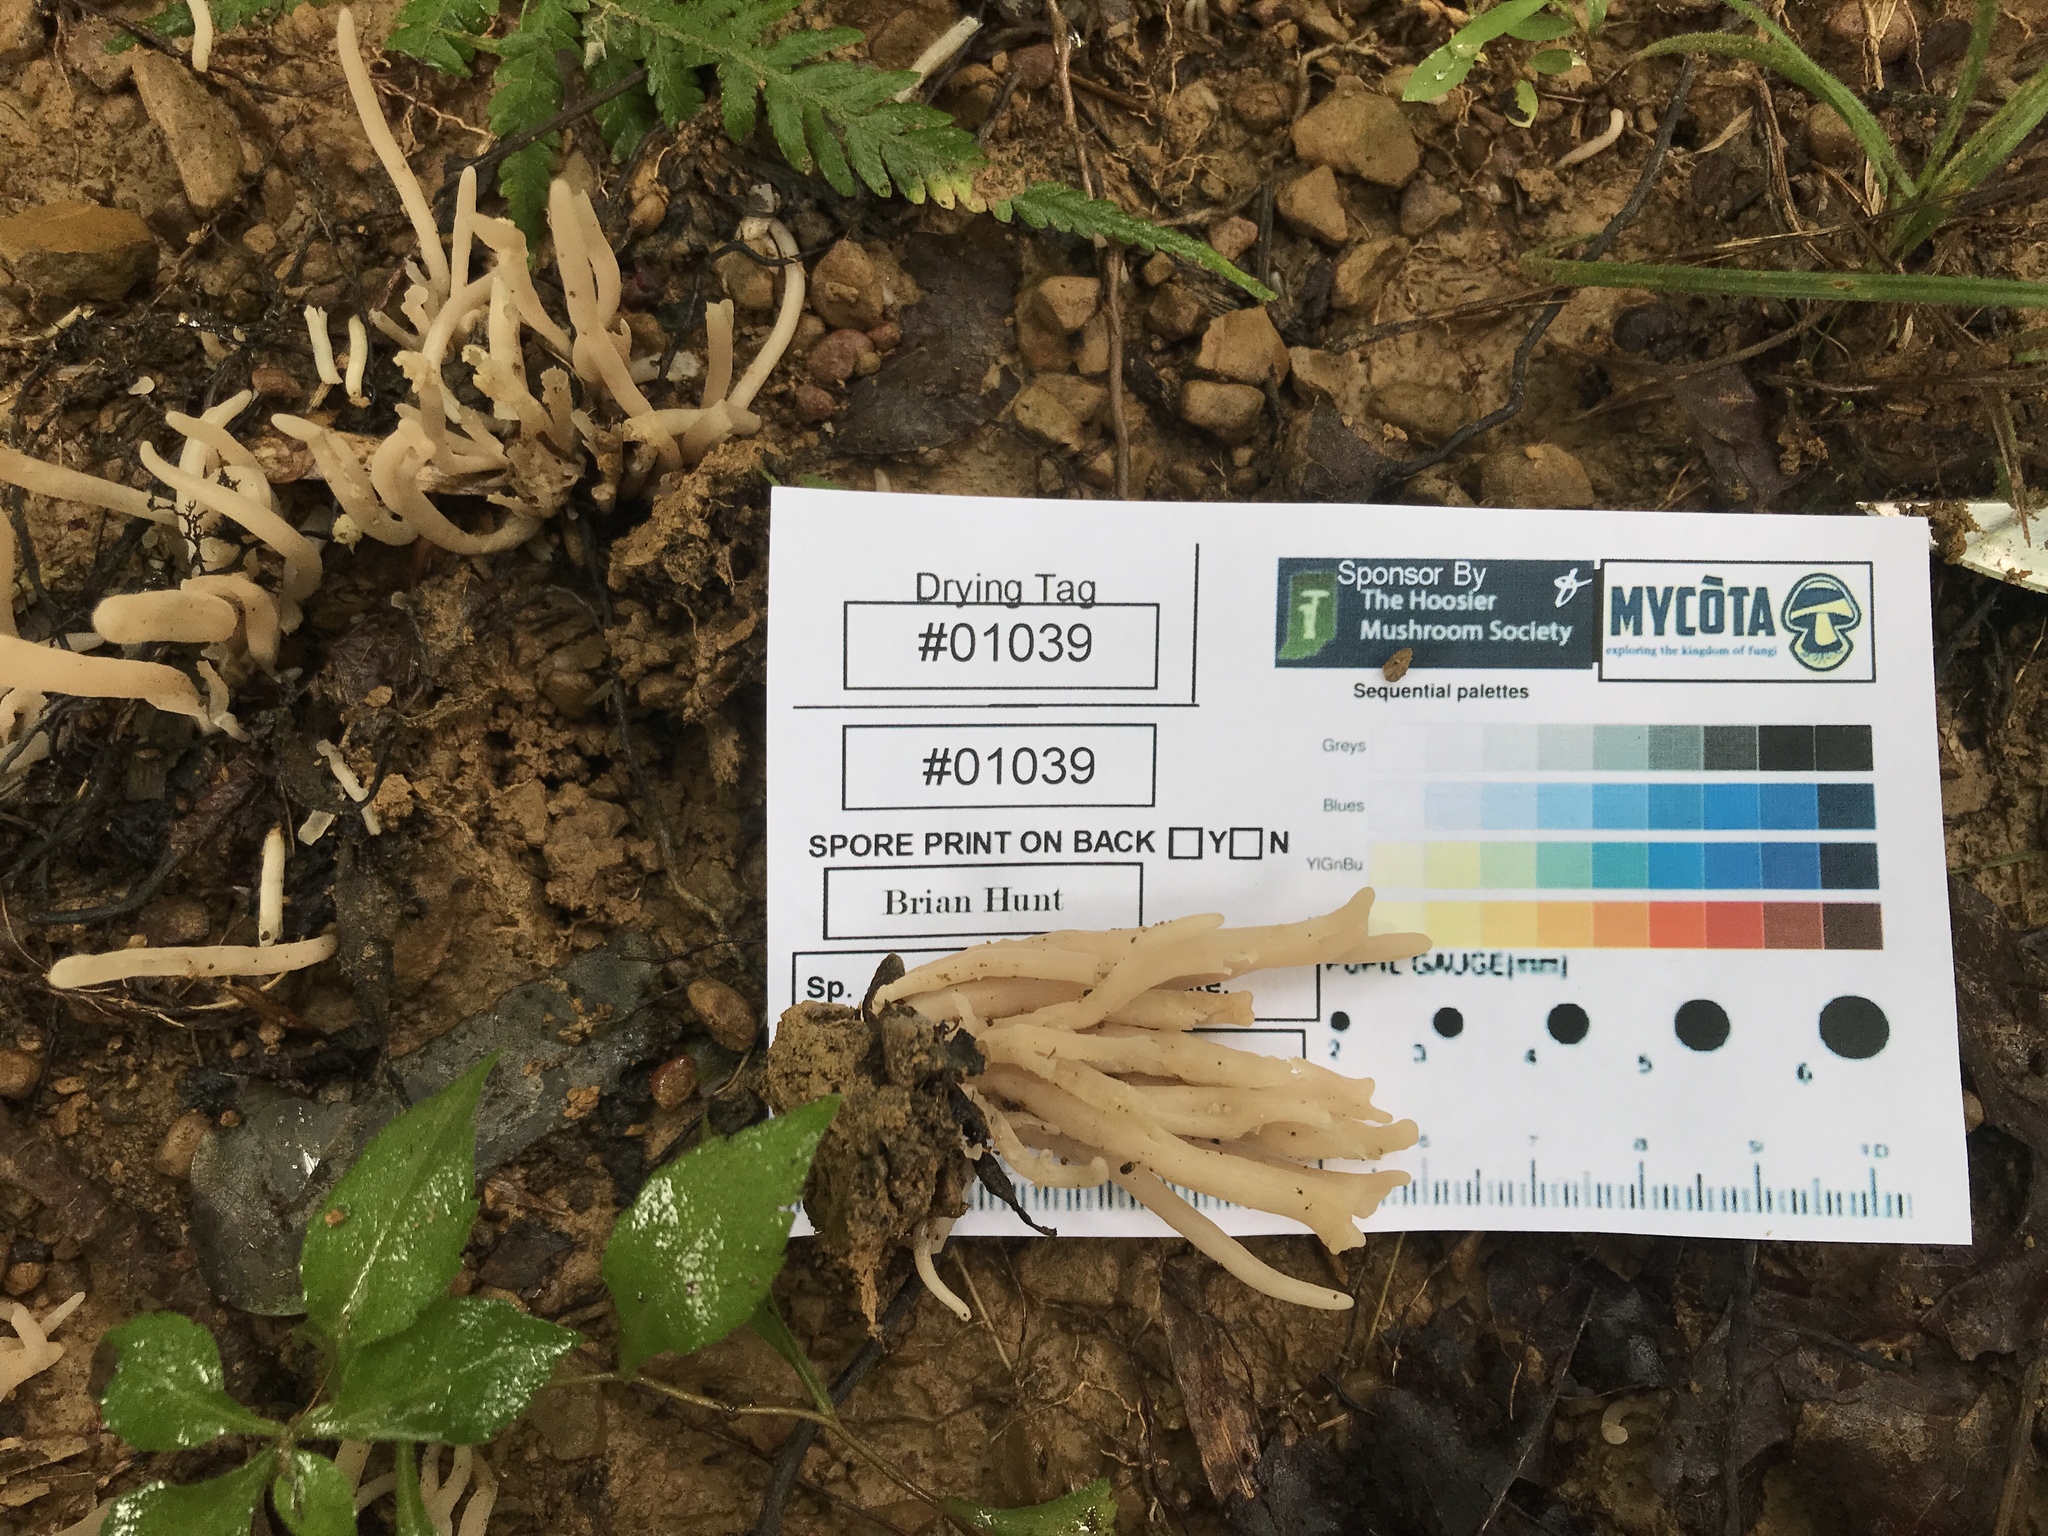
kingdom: Fungi
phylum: Basidiomycota
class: Agaricomycetes
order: Agaricales
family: Clavariaceae
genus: Clavaria
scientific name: Clavaria fumosa
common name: Smoky spindles
